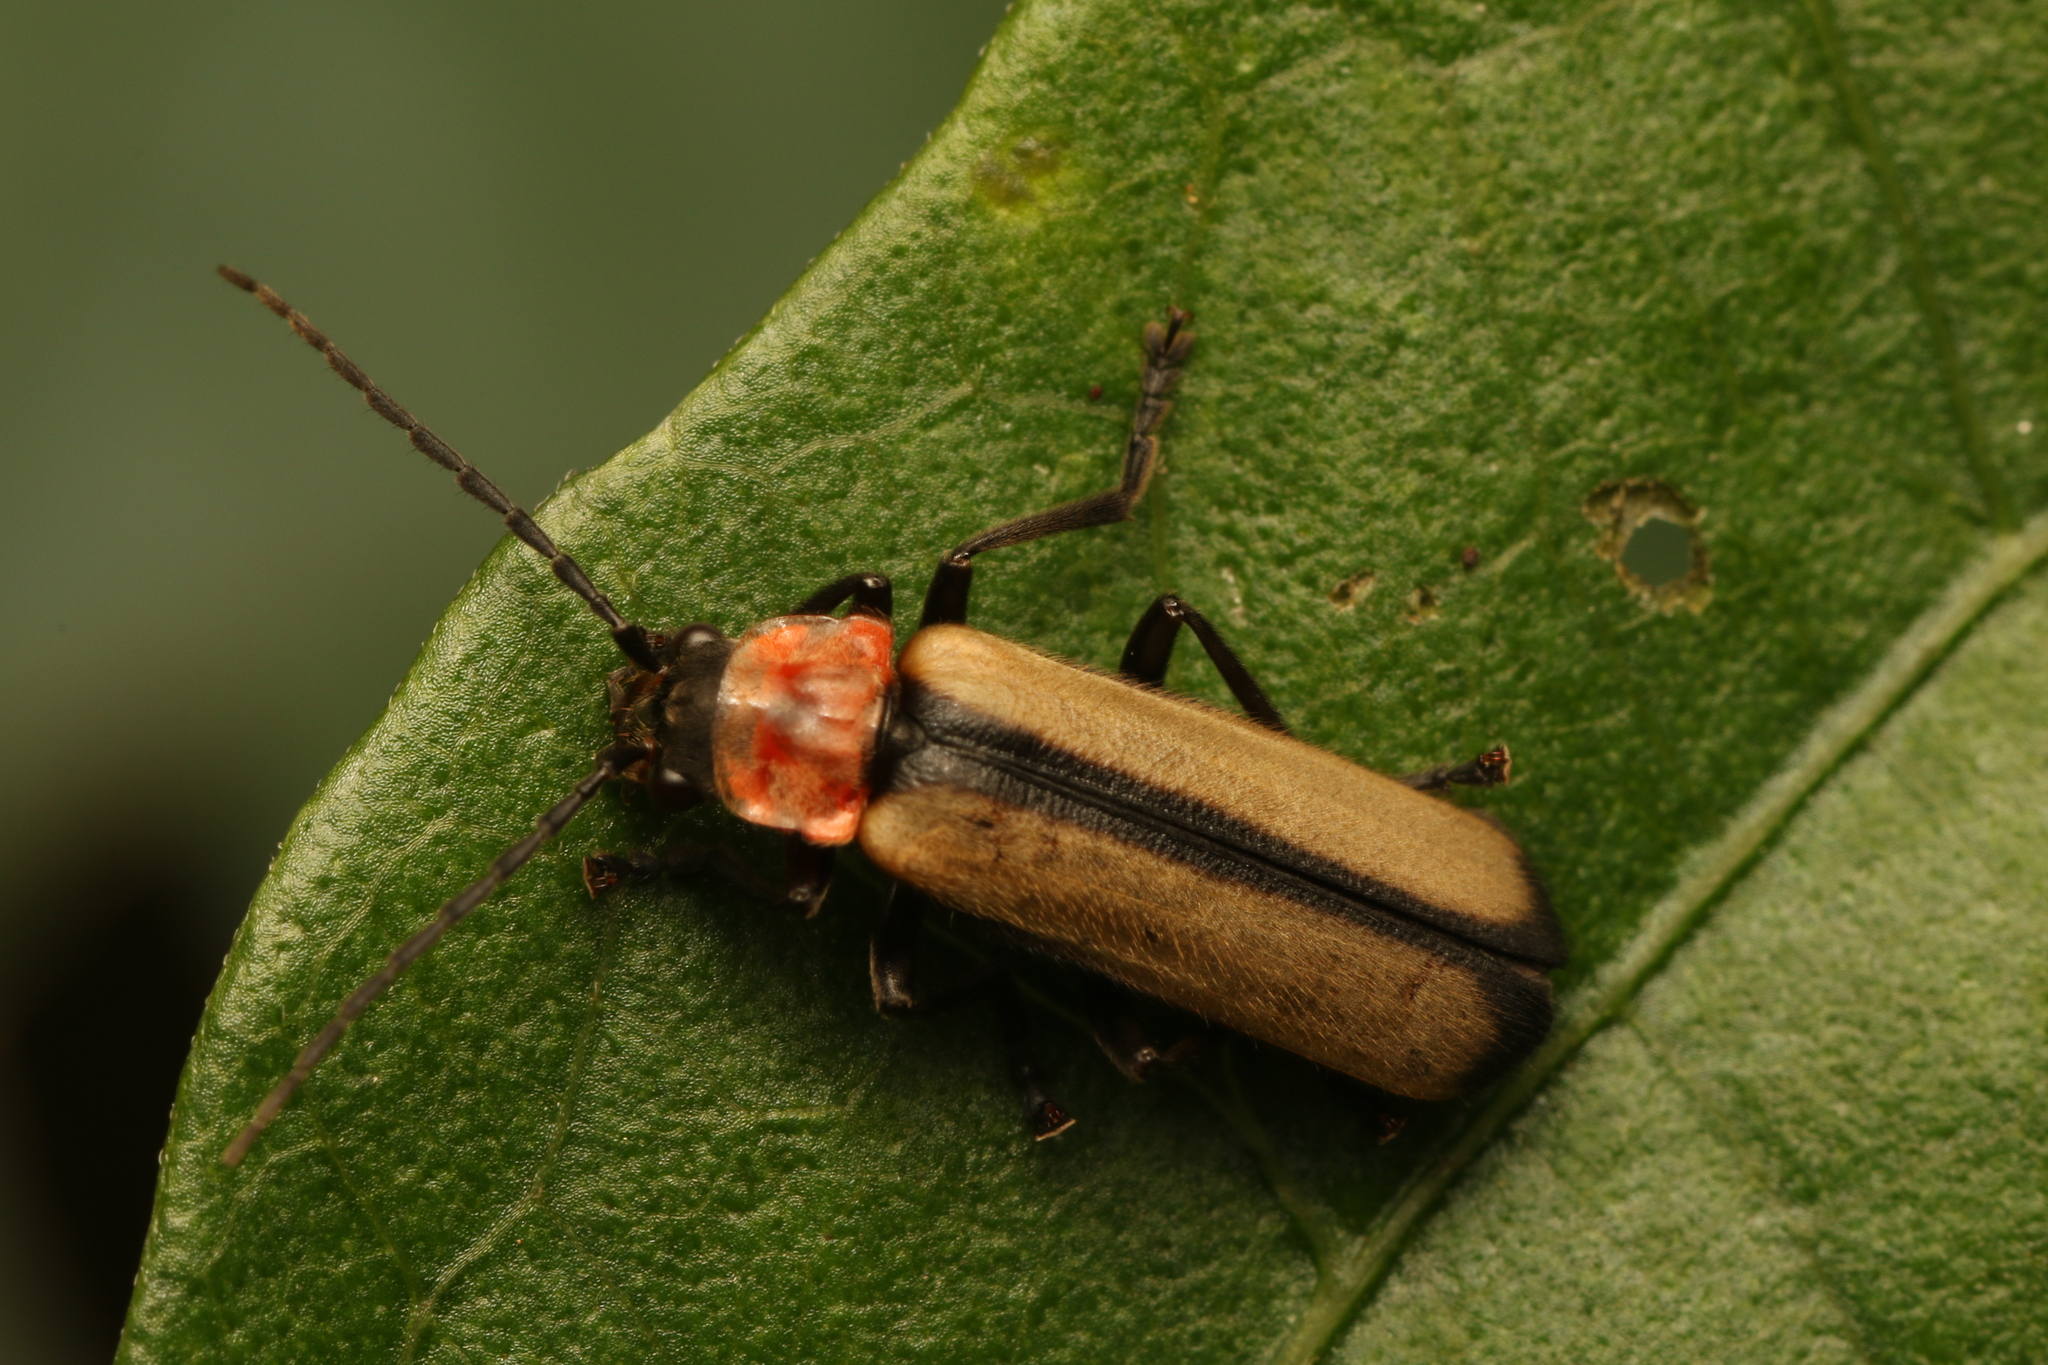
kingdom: Animalia
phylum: Arthropoda
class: Insecta
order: Coleoptera
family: Cantharidae
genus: Discodon
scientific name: Discodon
